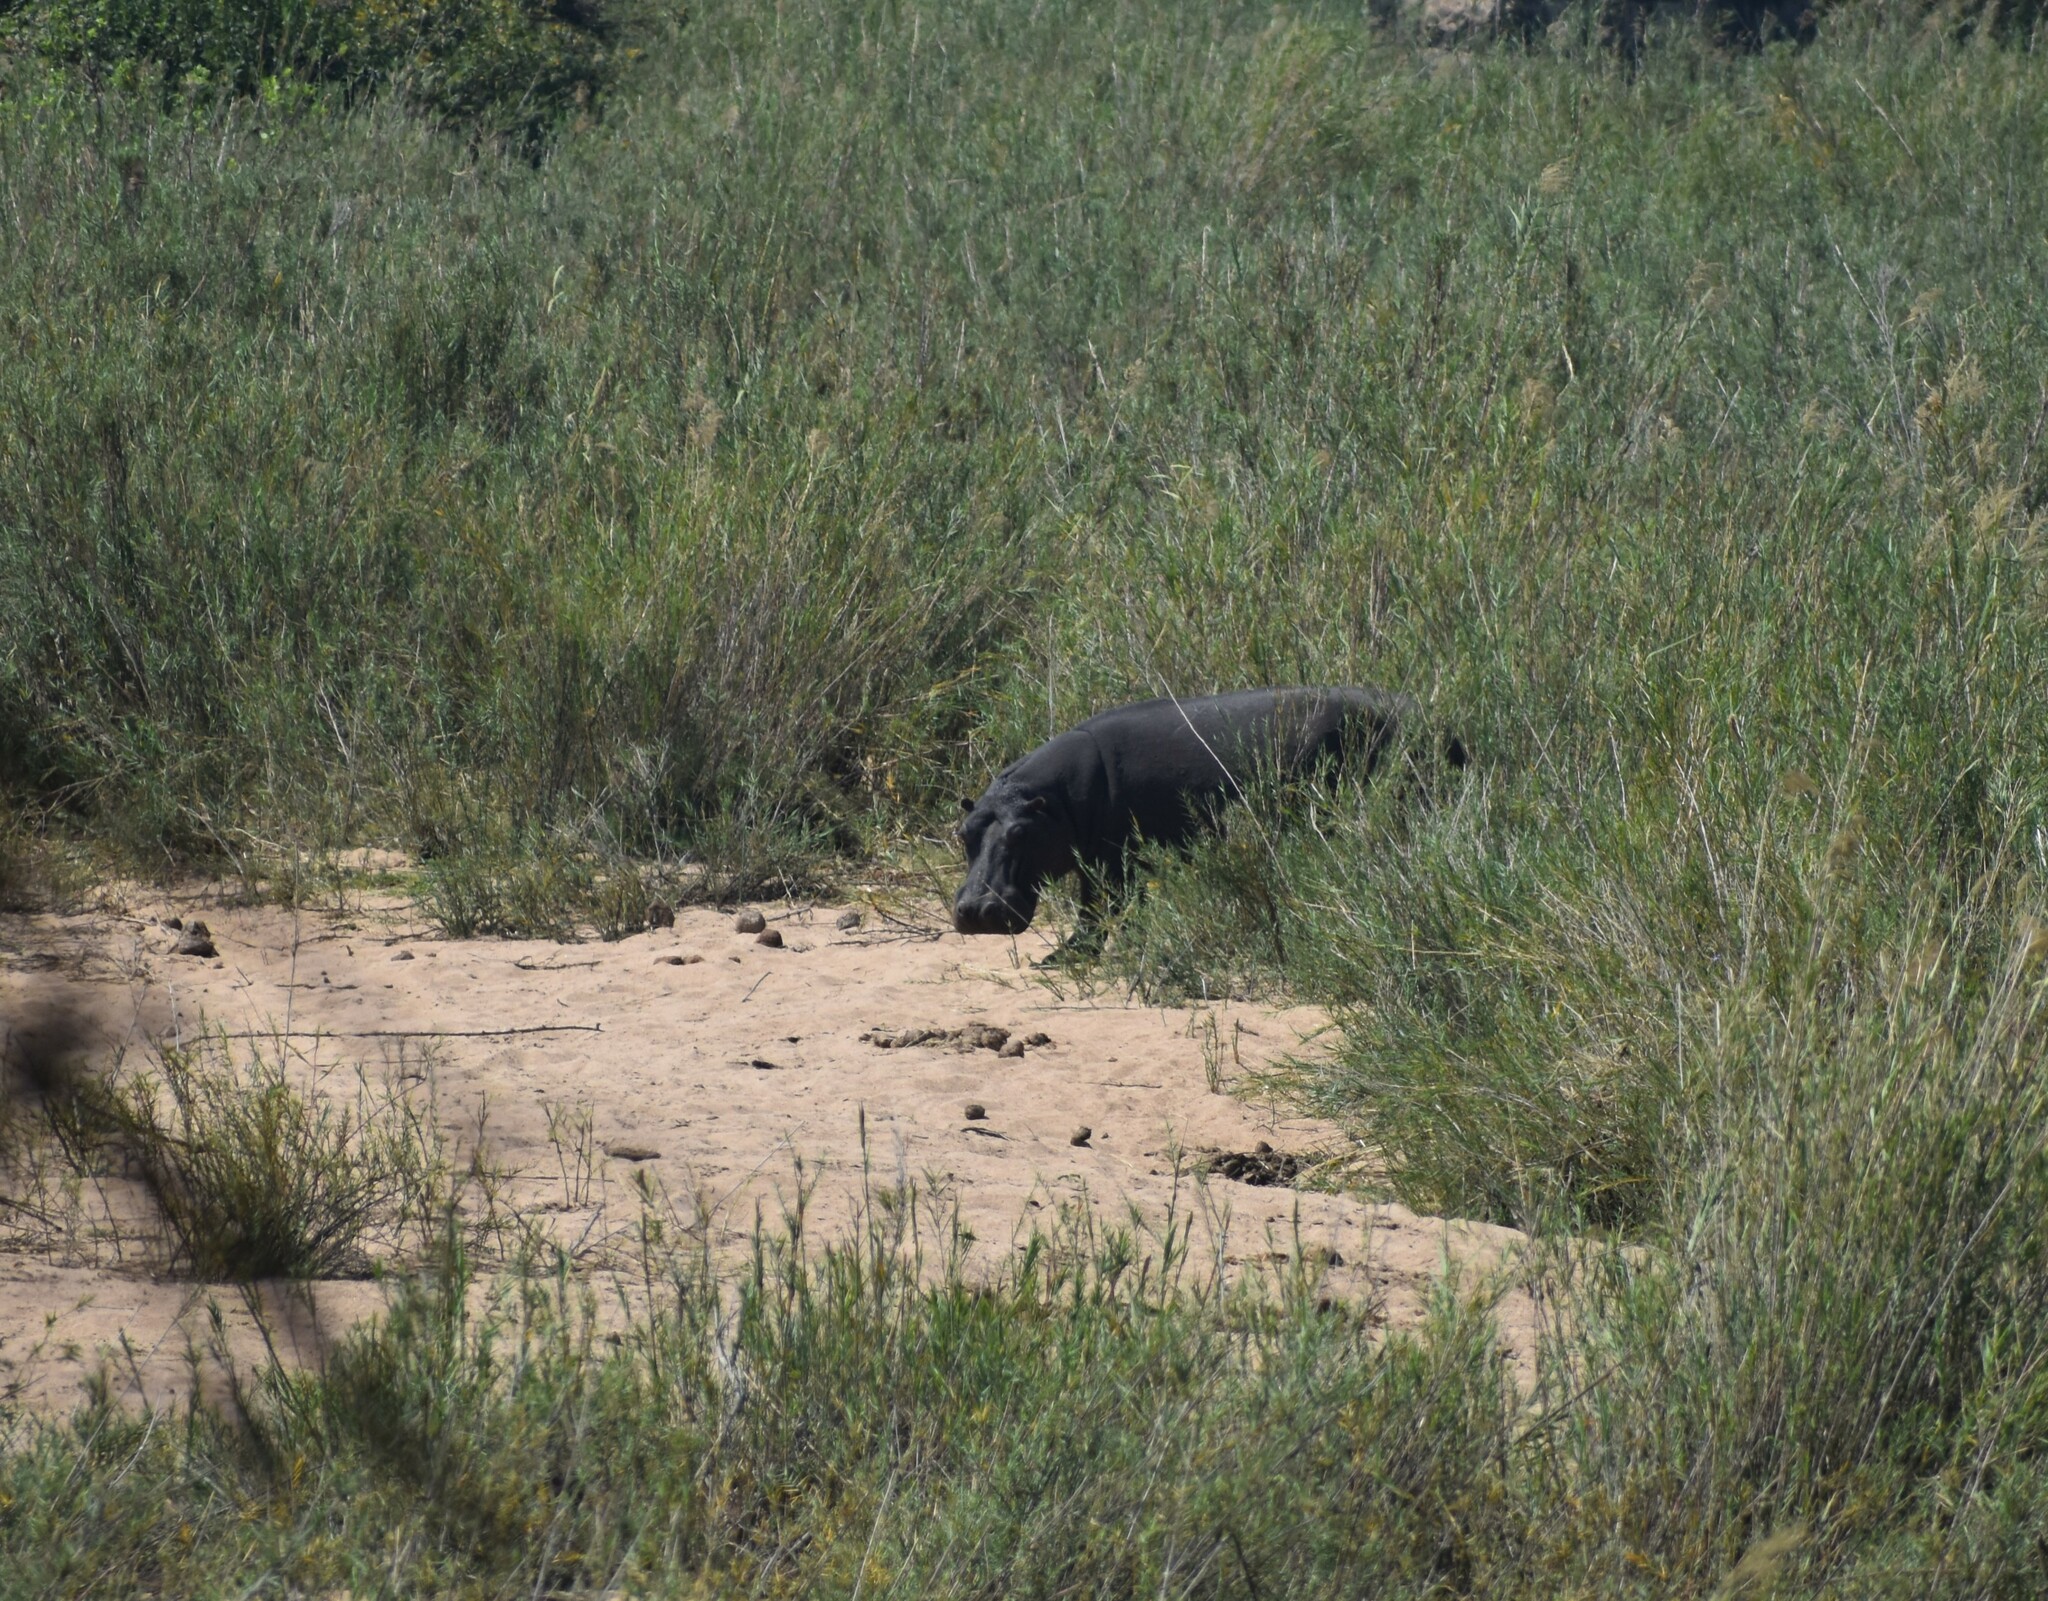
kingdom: Animalia
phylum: Chordata
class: Mammalia
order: Artiodactyla
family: Hippopotamidae
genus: Hippopotamus
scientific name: Hippopotamus amphibius
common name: Common hippopotamus
